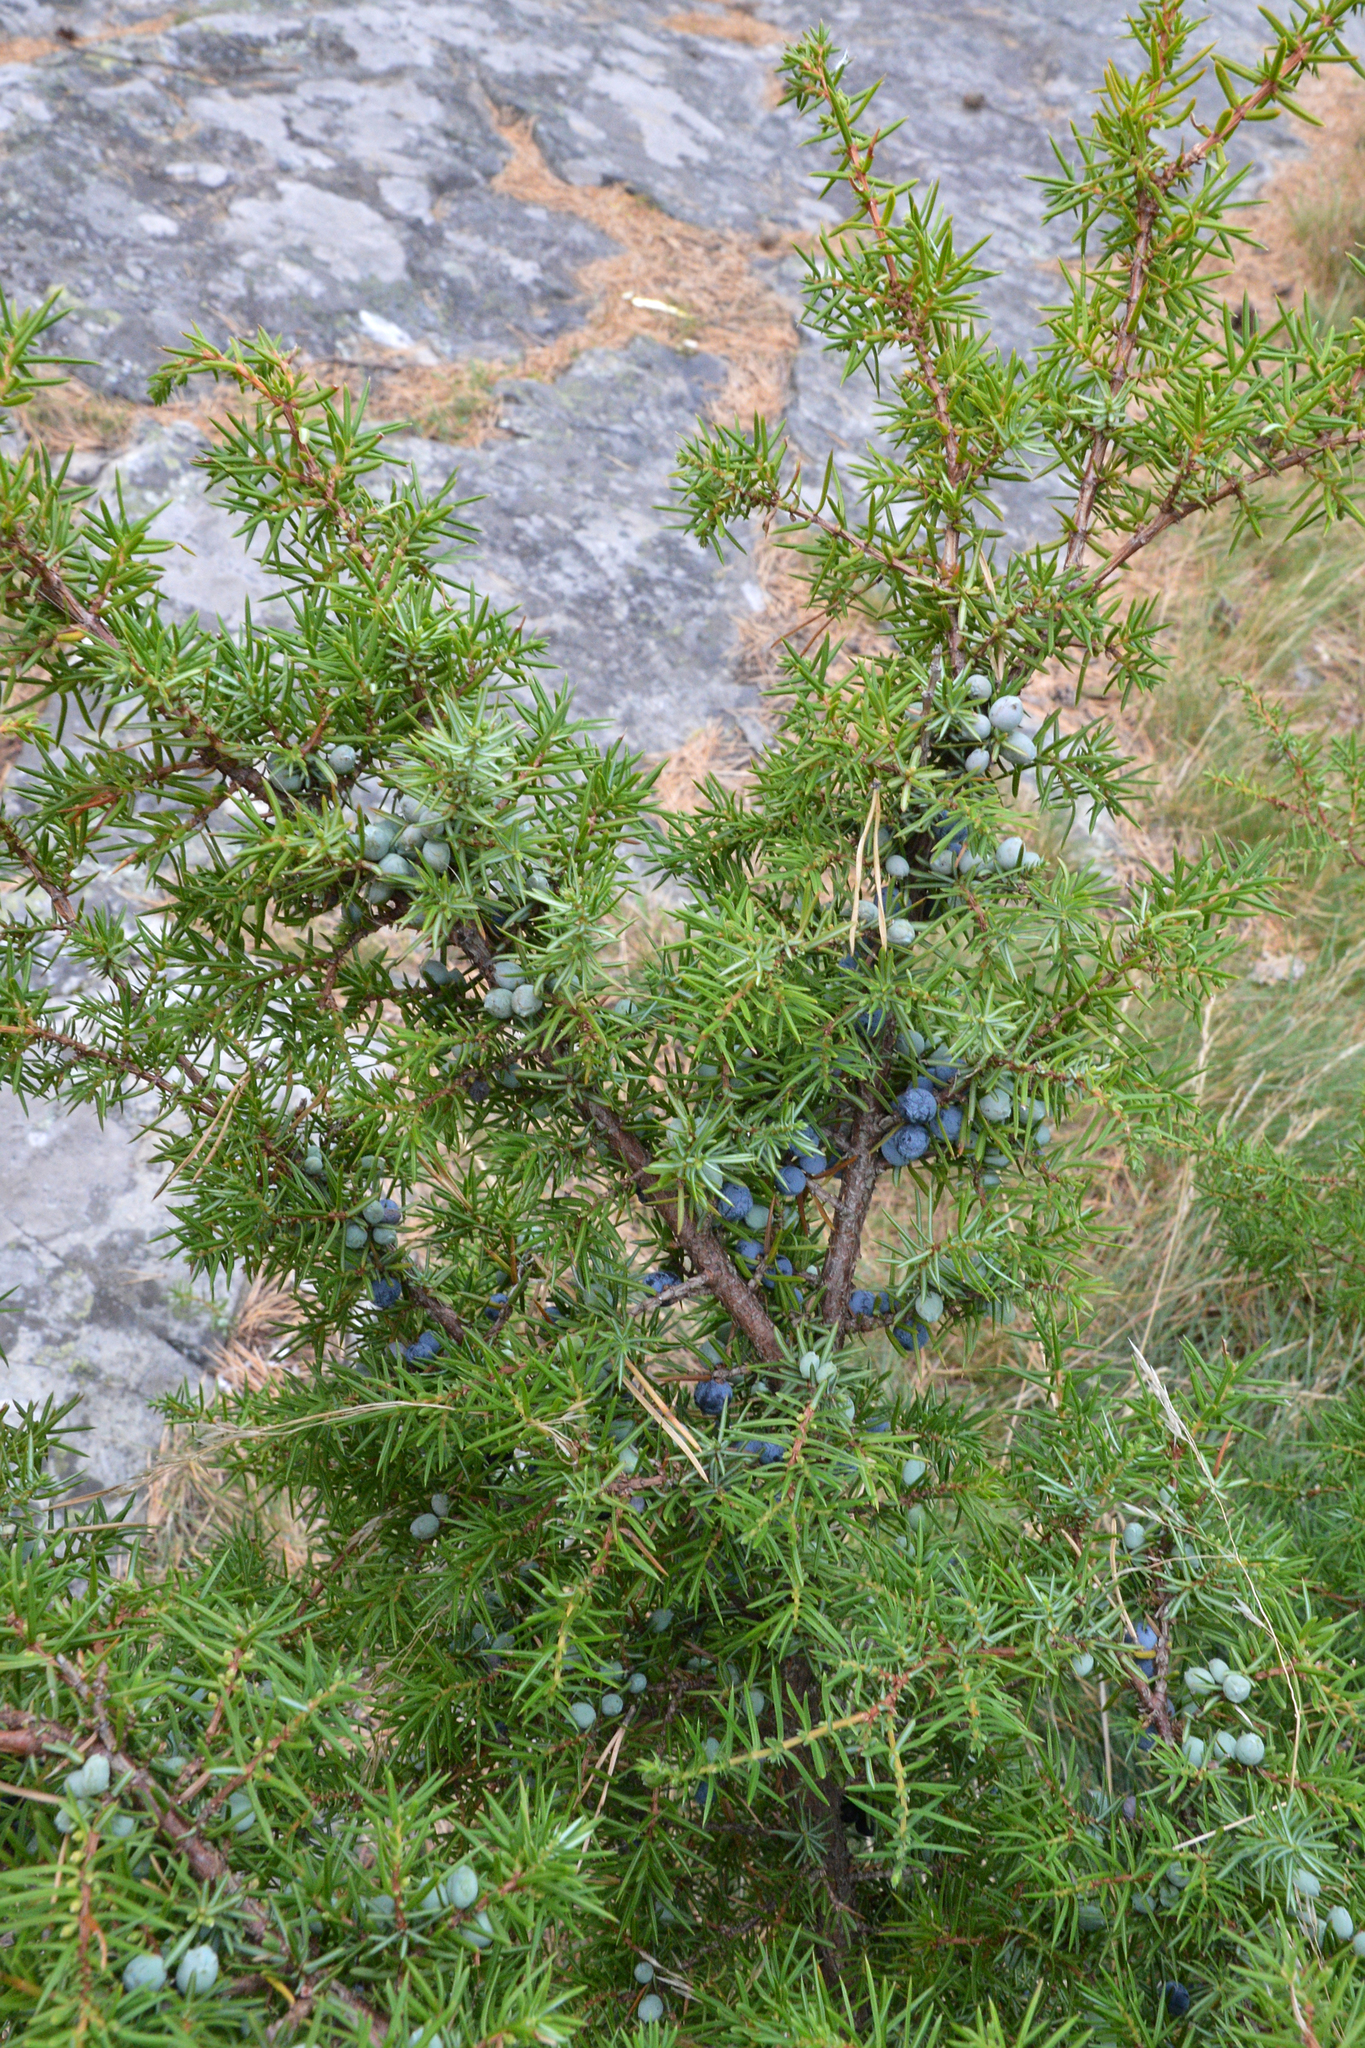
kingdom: Plantae
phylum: Tracheophyta
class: Pinopsida
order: Pinales
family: Cupressaceae
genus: Juniperus
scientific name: Juniperus communis
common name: Common juniper
